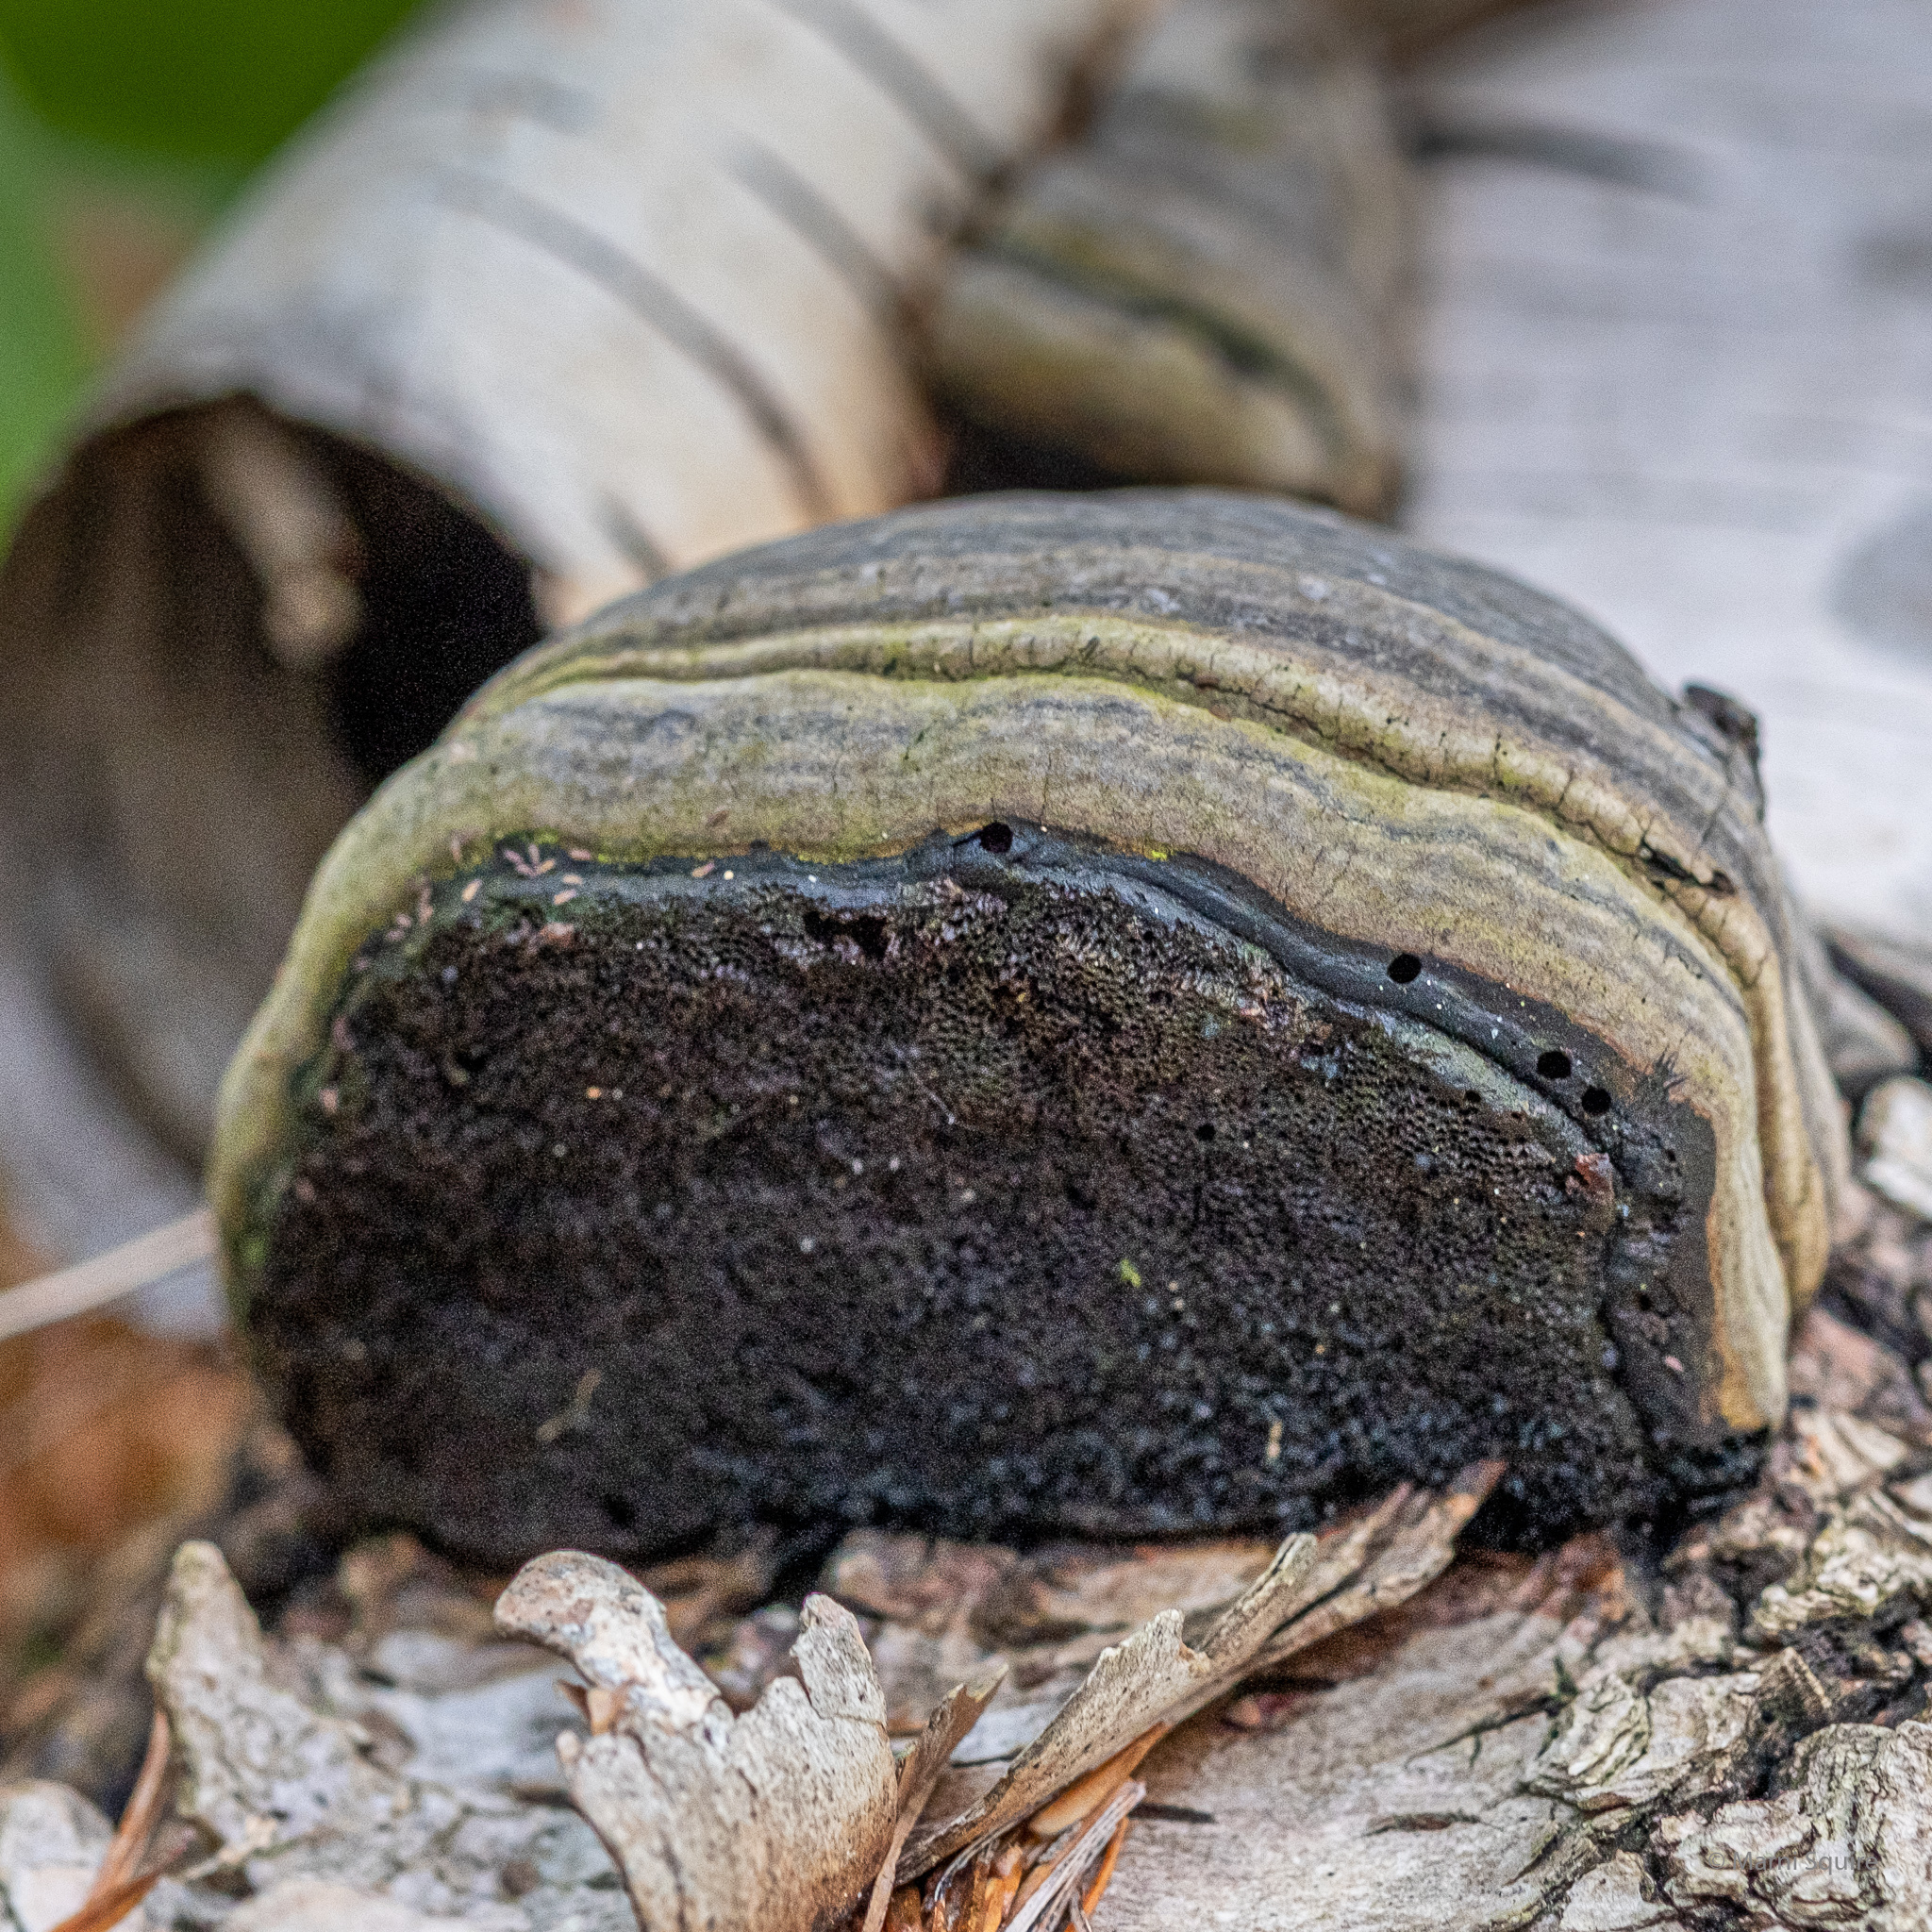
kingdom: Fungi
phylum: Basidiomycota
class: Agaricomycetes
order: Polyporales
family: Polyporaceae
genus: Fomes
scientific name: Fomes fomentarius
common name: Hoof fungus
